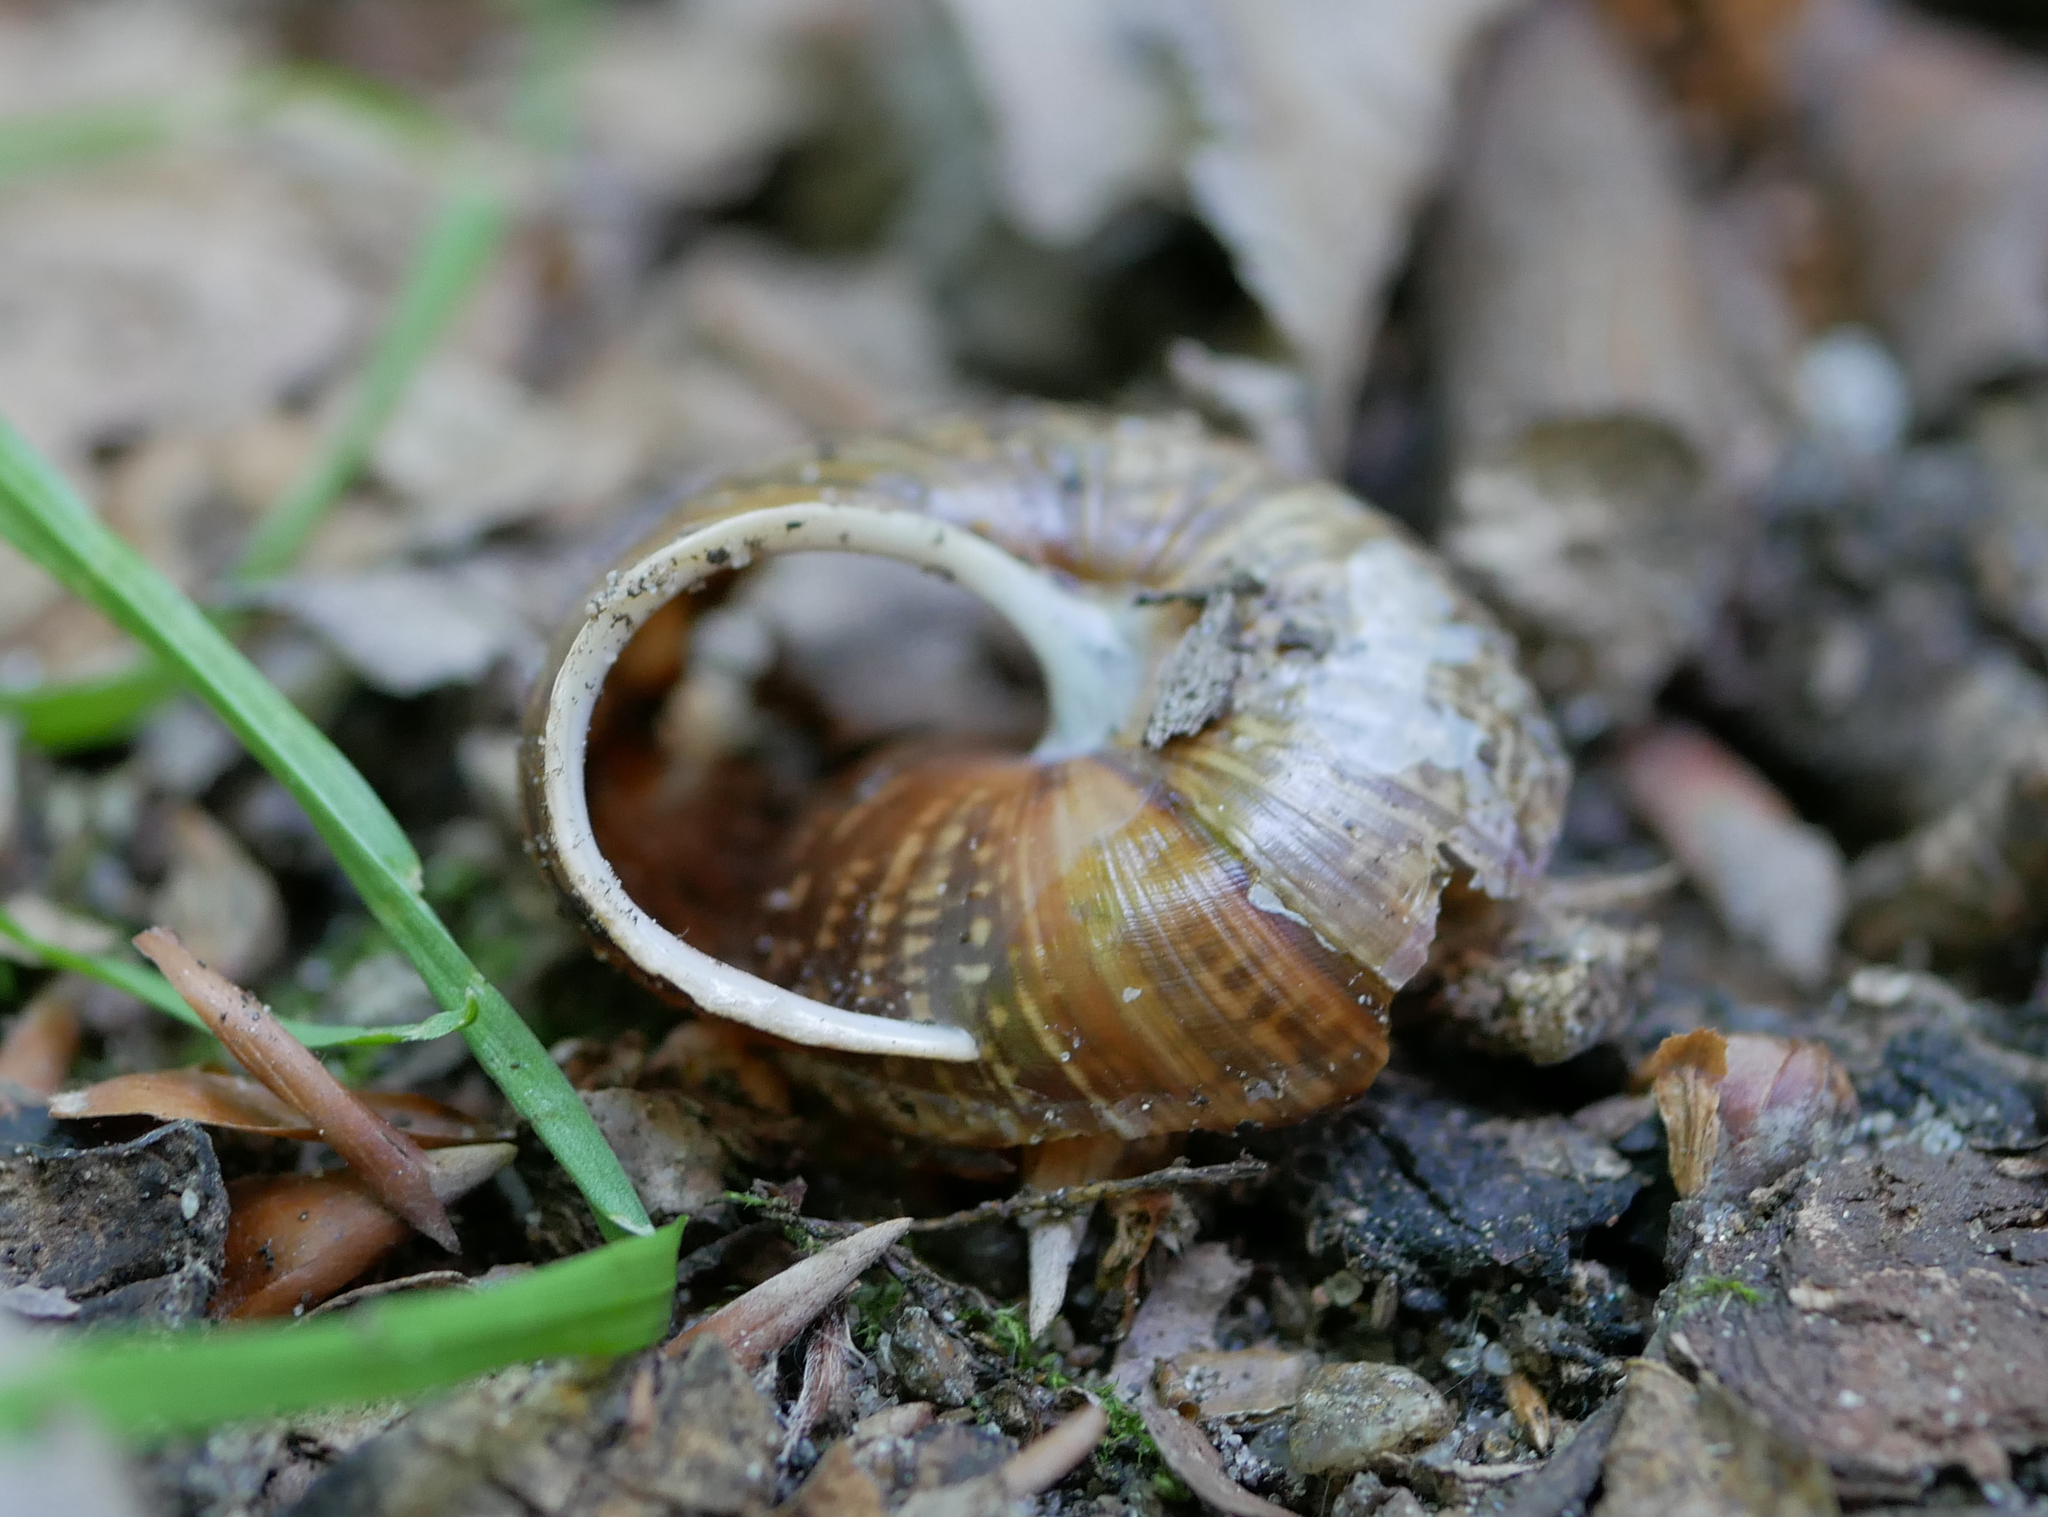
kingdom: Animalia
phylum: Mollusca
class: Gastropoda
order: Stylommatophora
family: Helicidae
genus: Arianta
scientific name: Arianta arbustorum
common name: Copse snail
